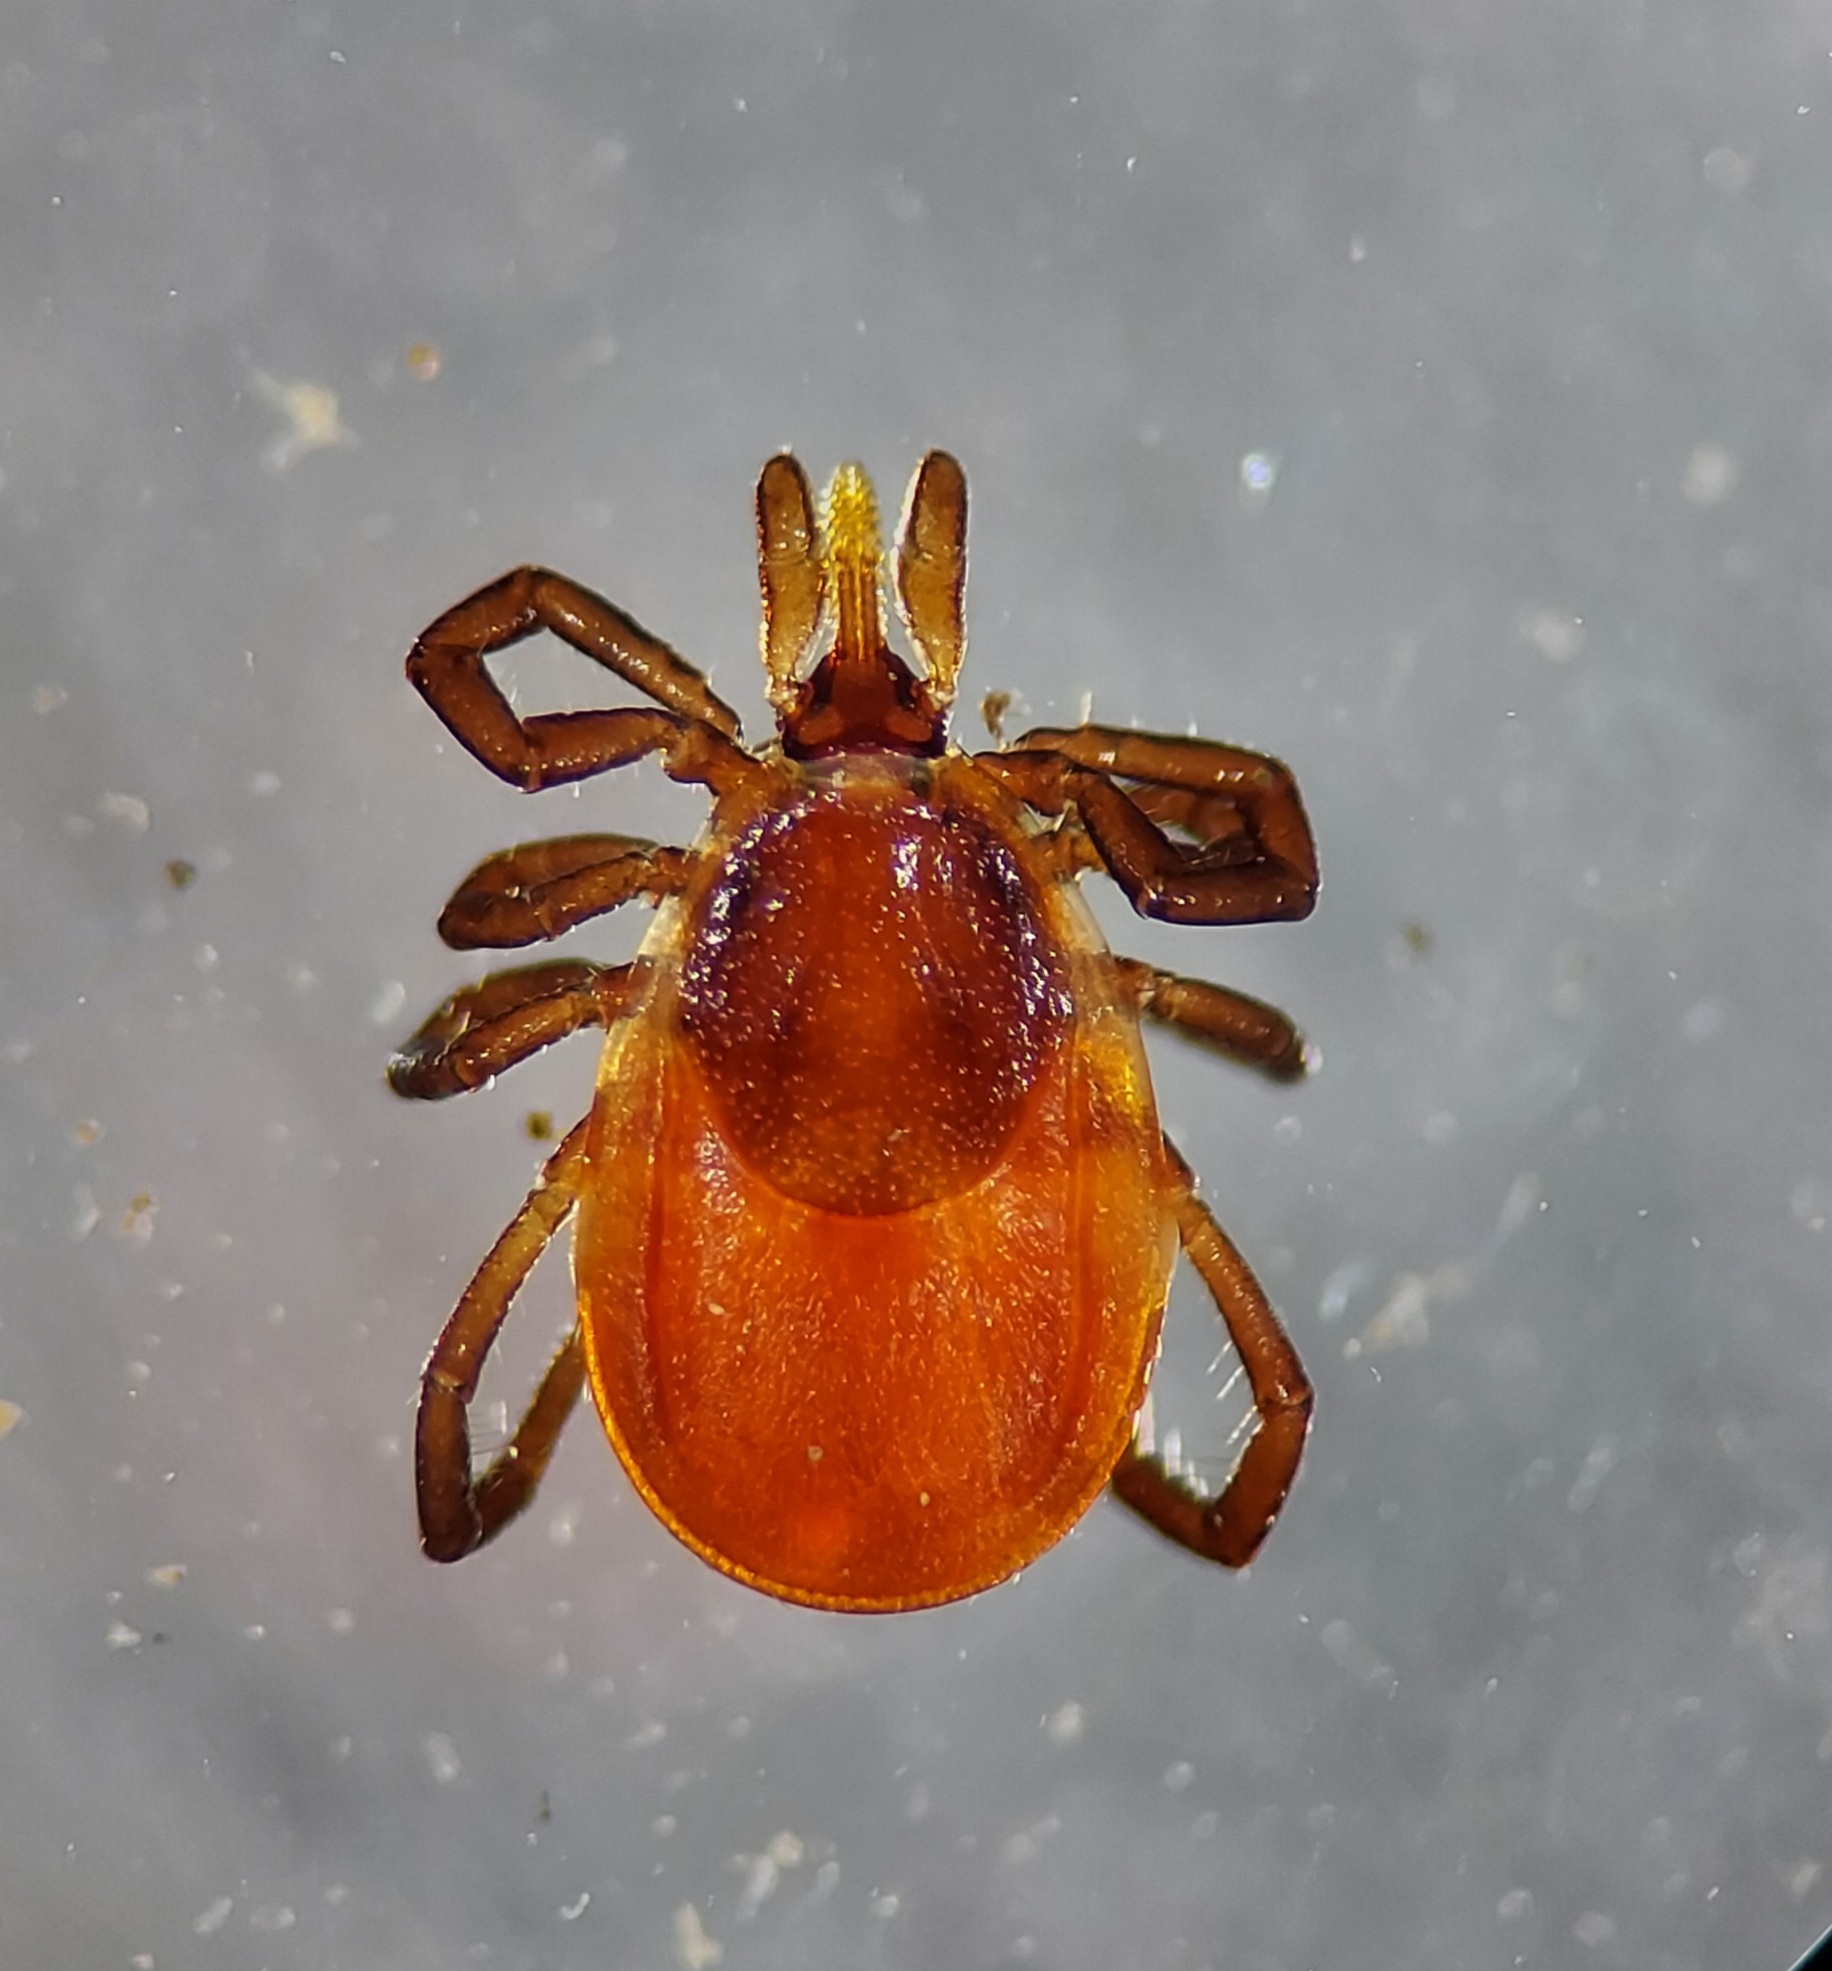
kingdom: Animalia
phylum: Arthropoda
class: Arachnida
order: Ixodida
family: Ixodidae
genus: Ixodes
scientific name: Ixodes scapularis
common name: Black legged tick
